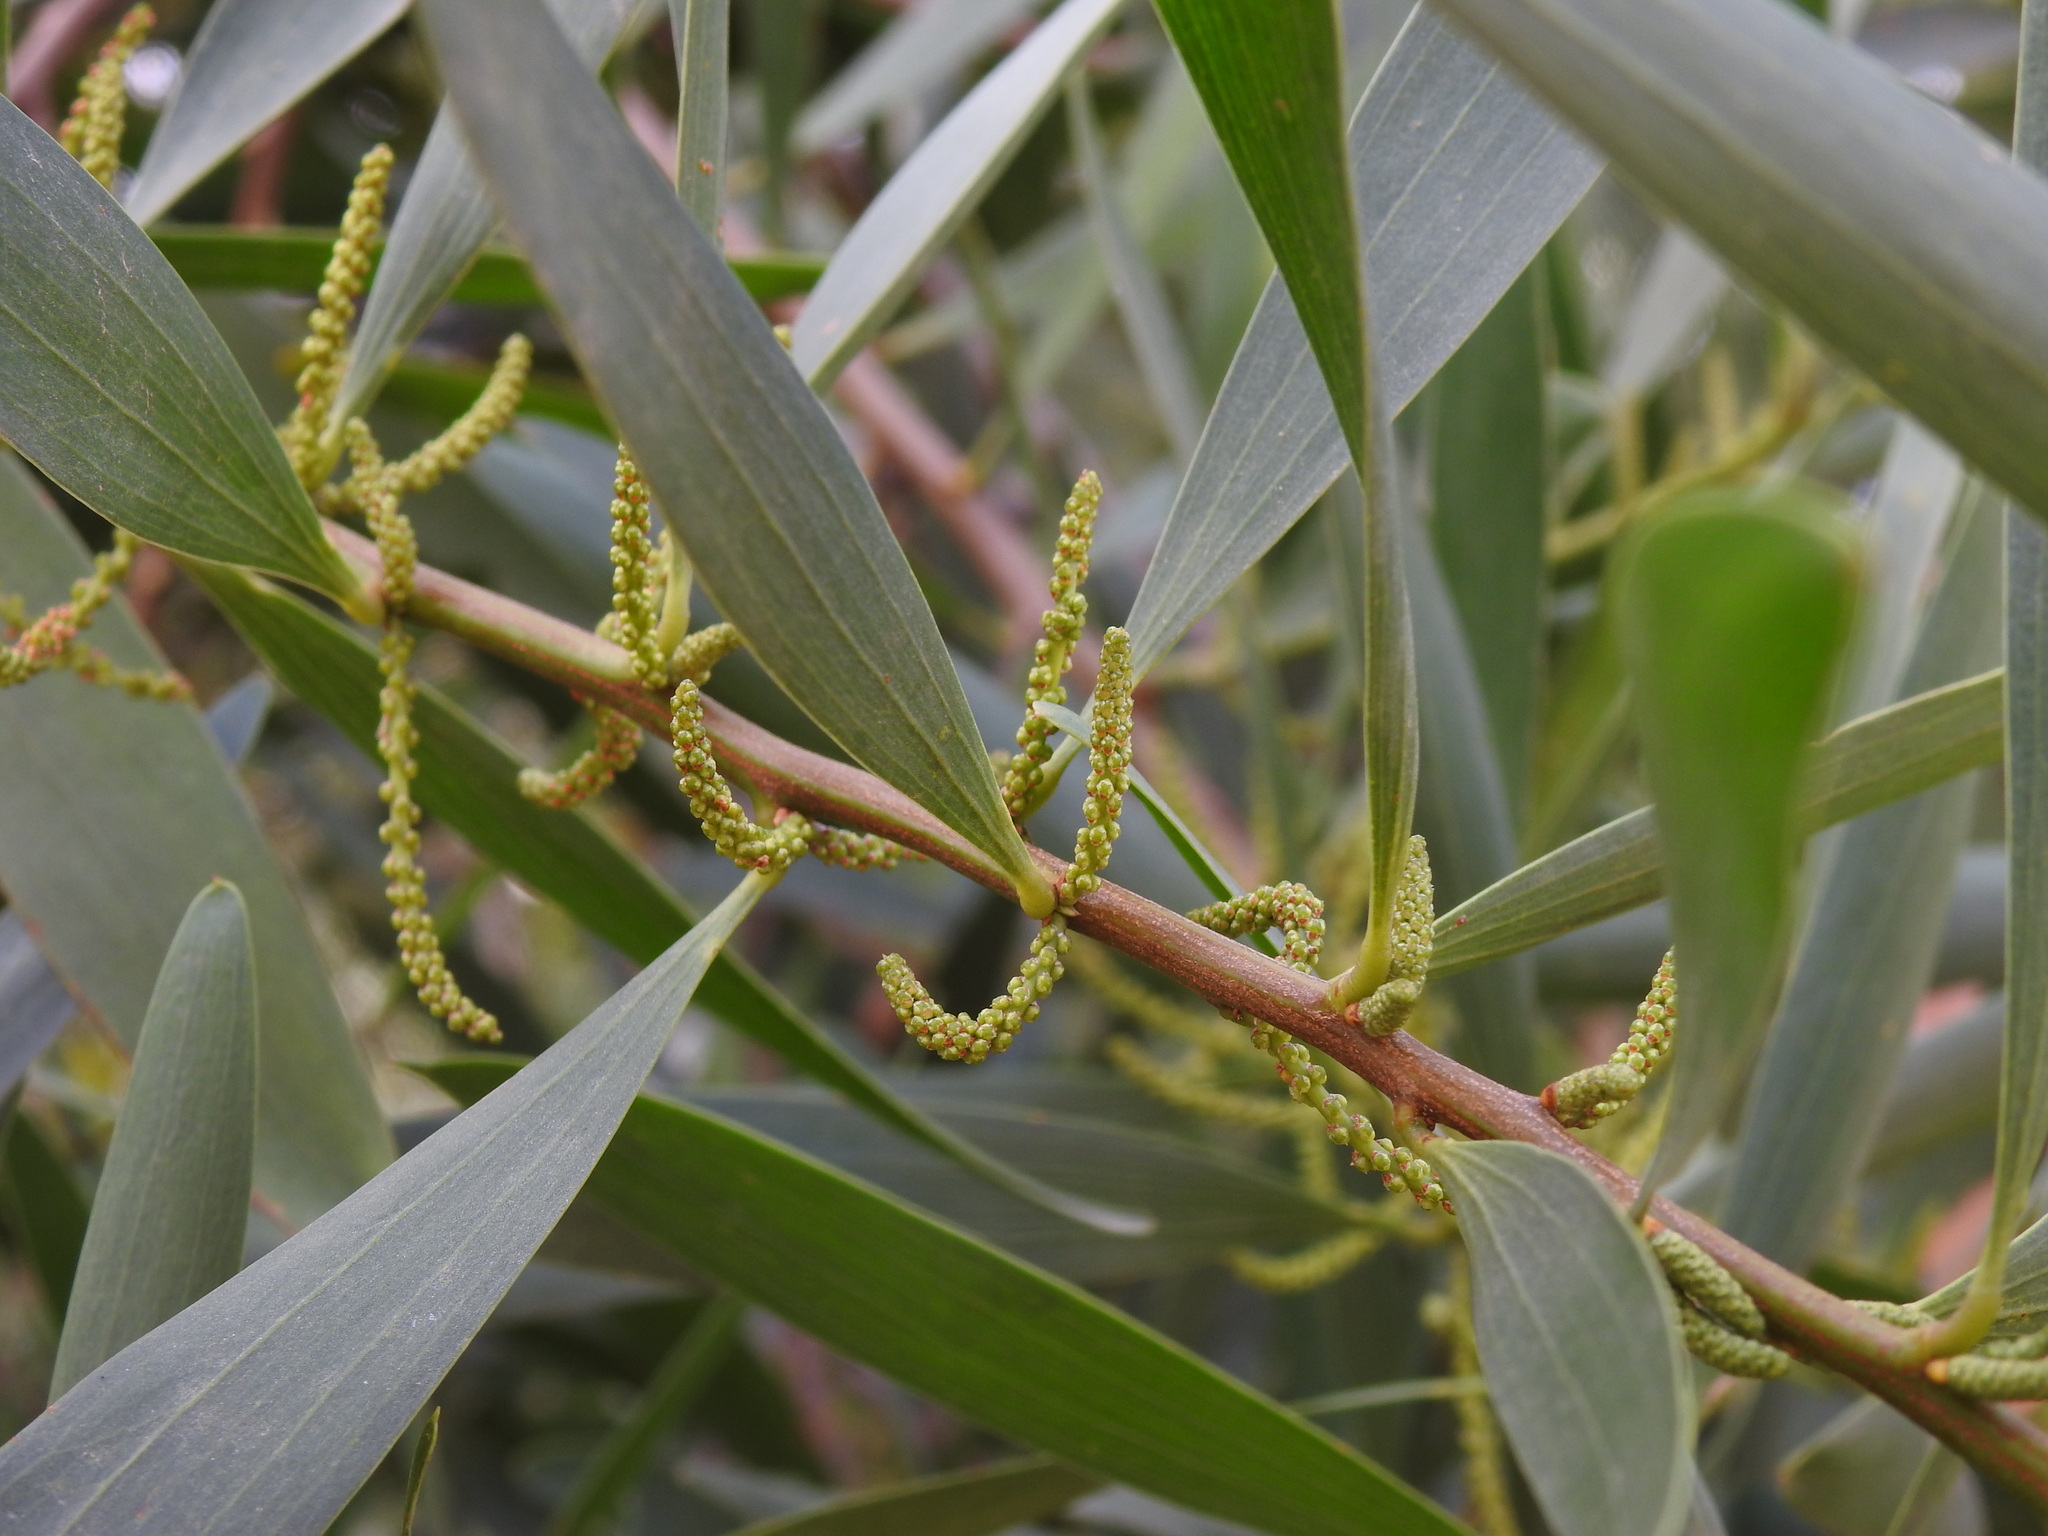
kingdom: Plantae
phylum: Tracheophyta
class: Magnoliopsida
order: Fabales
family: Fabaceae
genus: Acacia
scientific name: Acacia longifolia
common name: Sydney golden wattle
